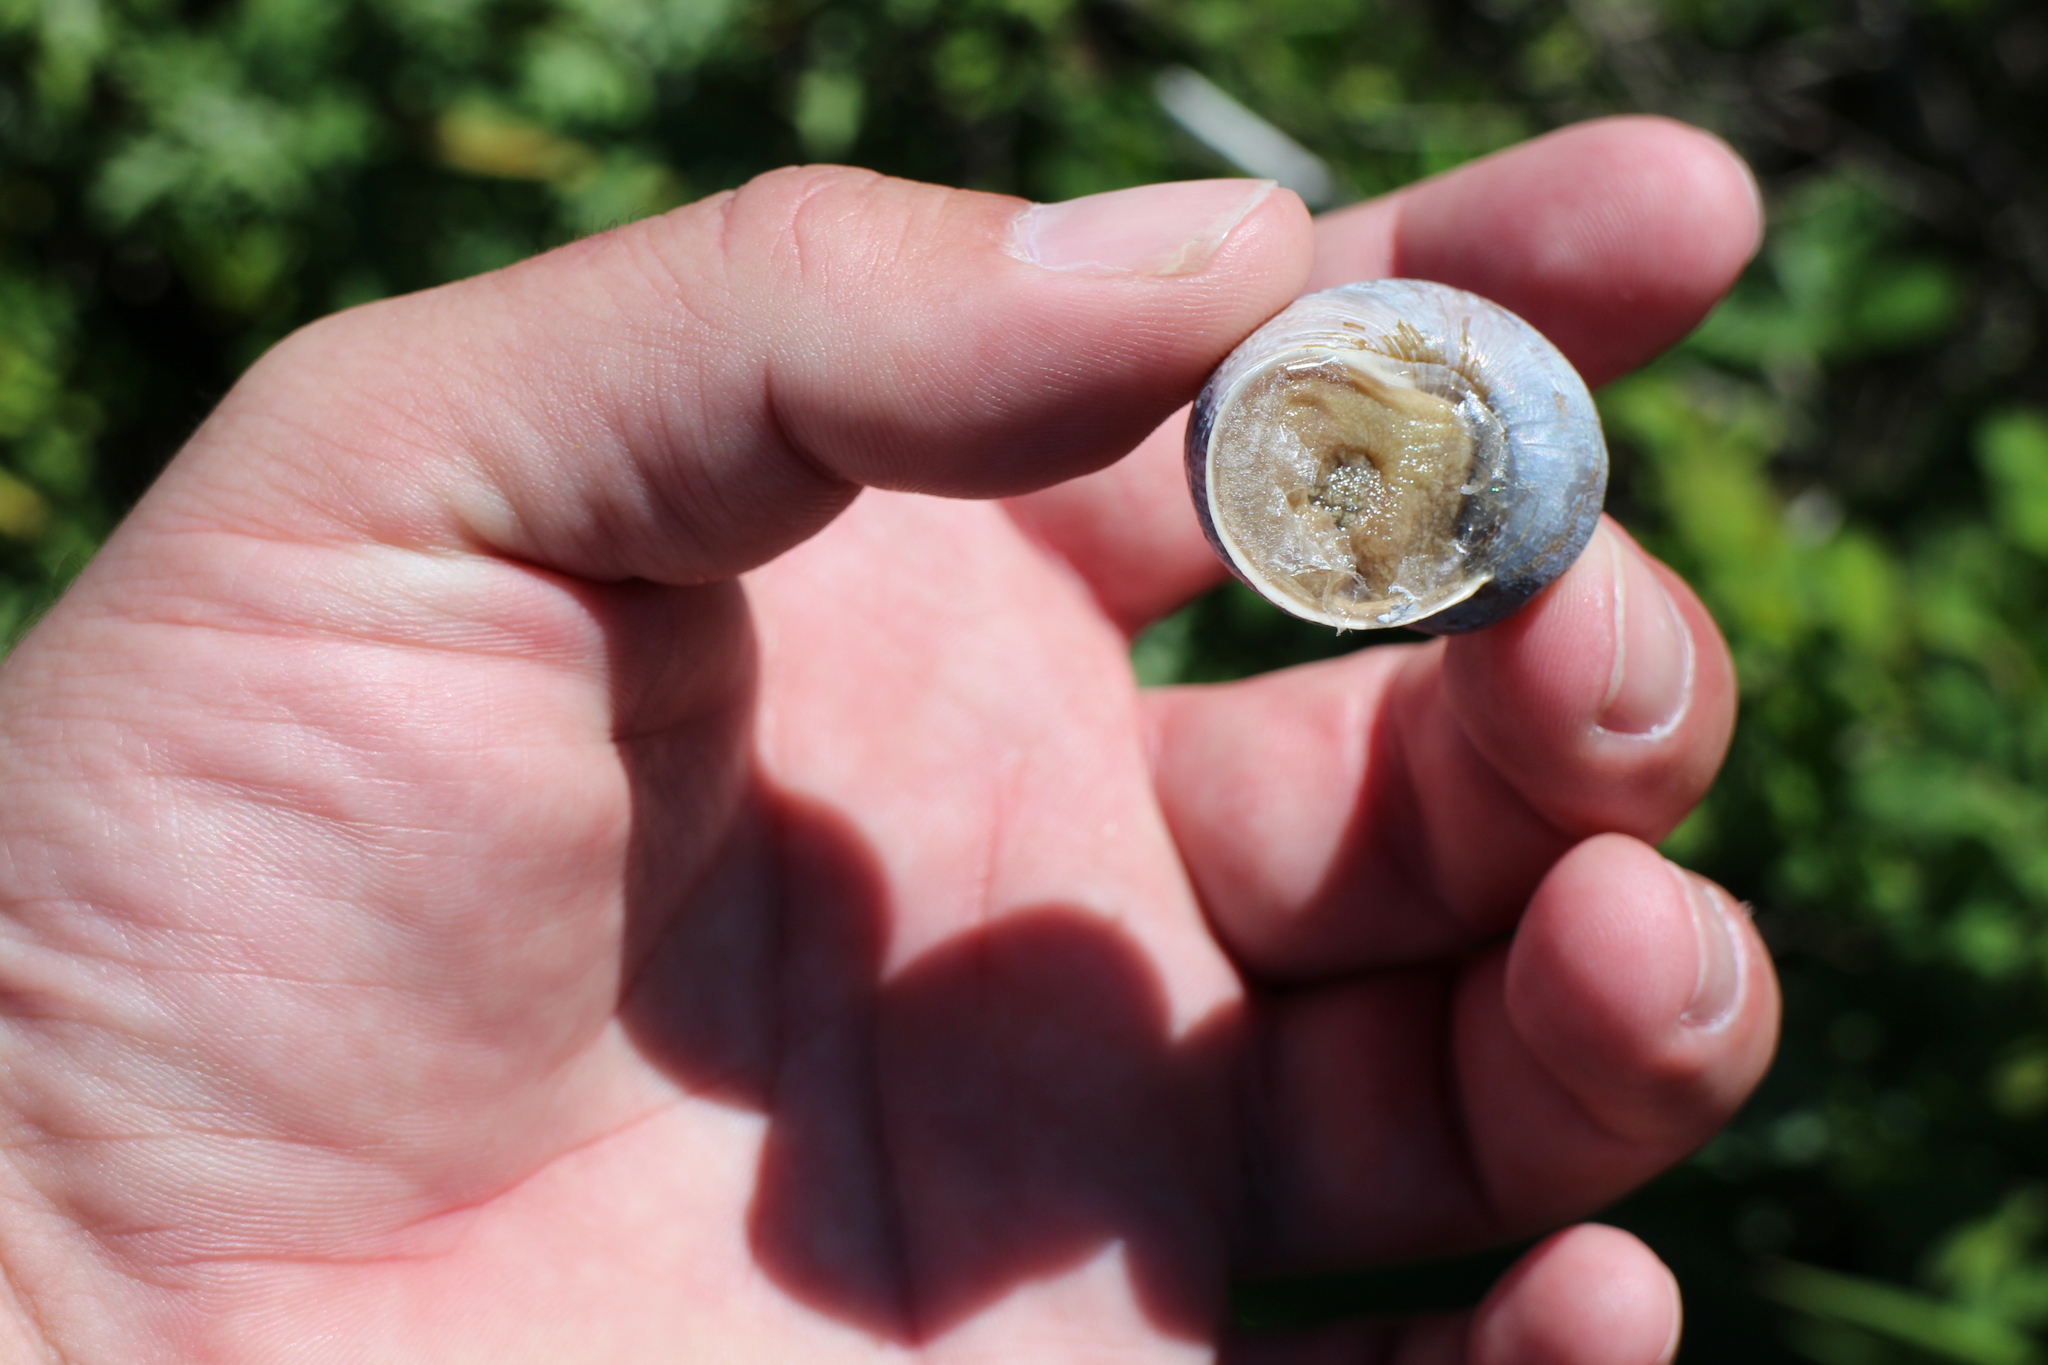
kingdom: Animalia
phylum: Mollusca
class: Gastropoda
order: Stylommatophora
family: Helicidae
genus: Cornu
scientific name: Cornu aspersum
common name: Brown garden snail
